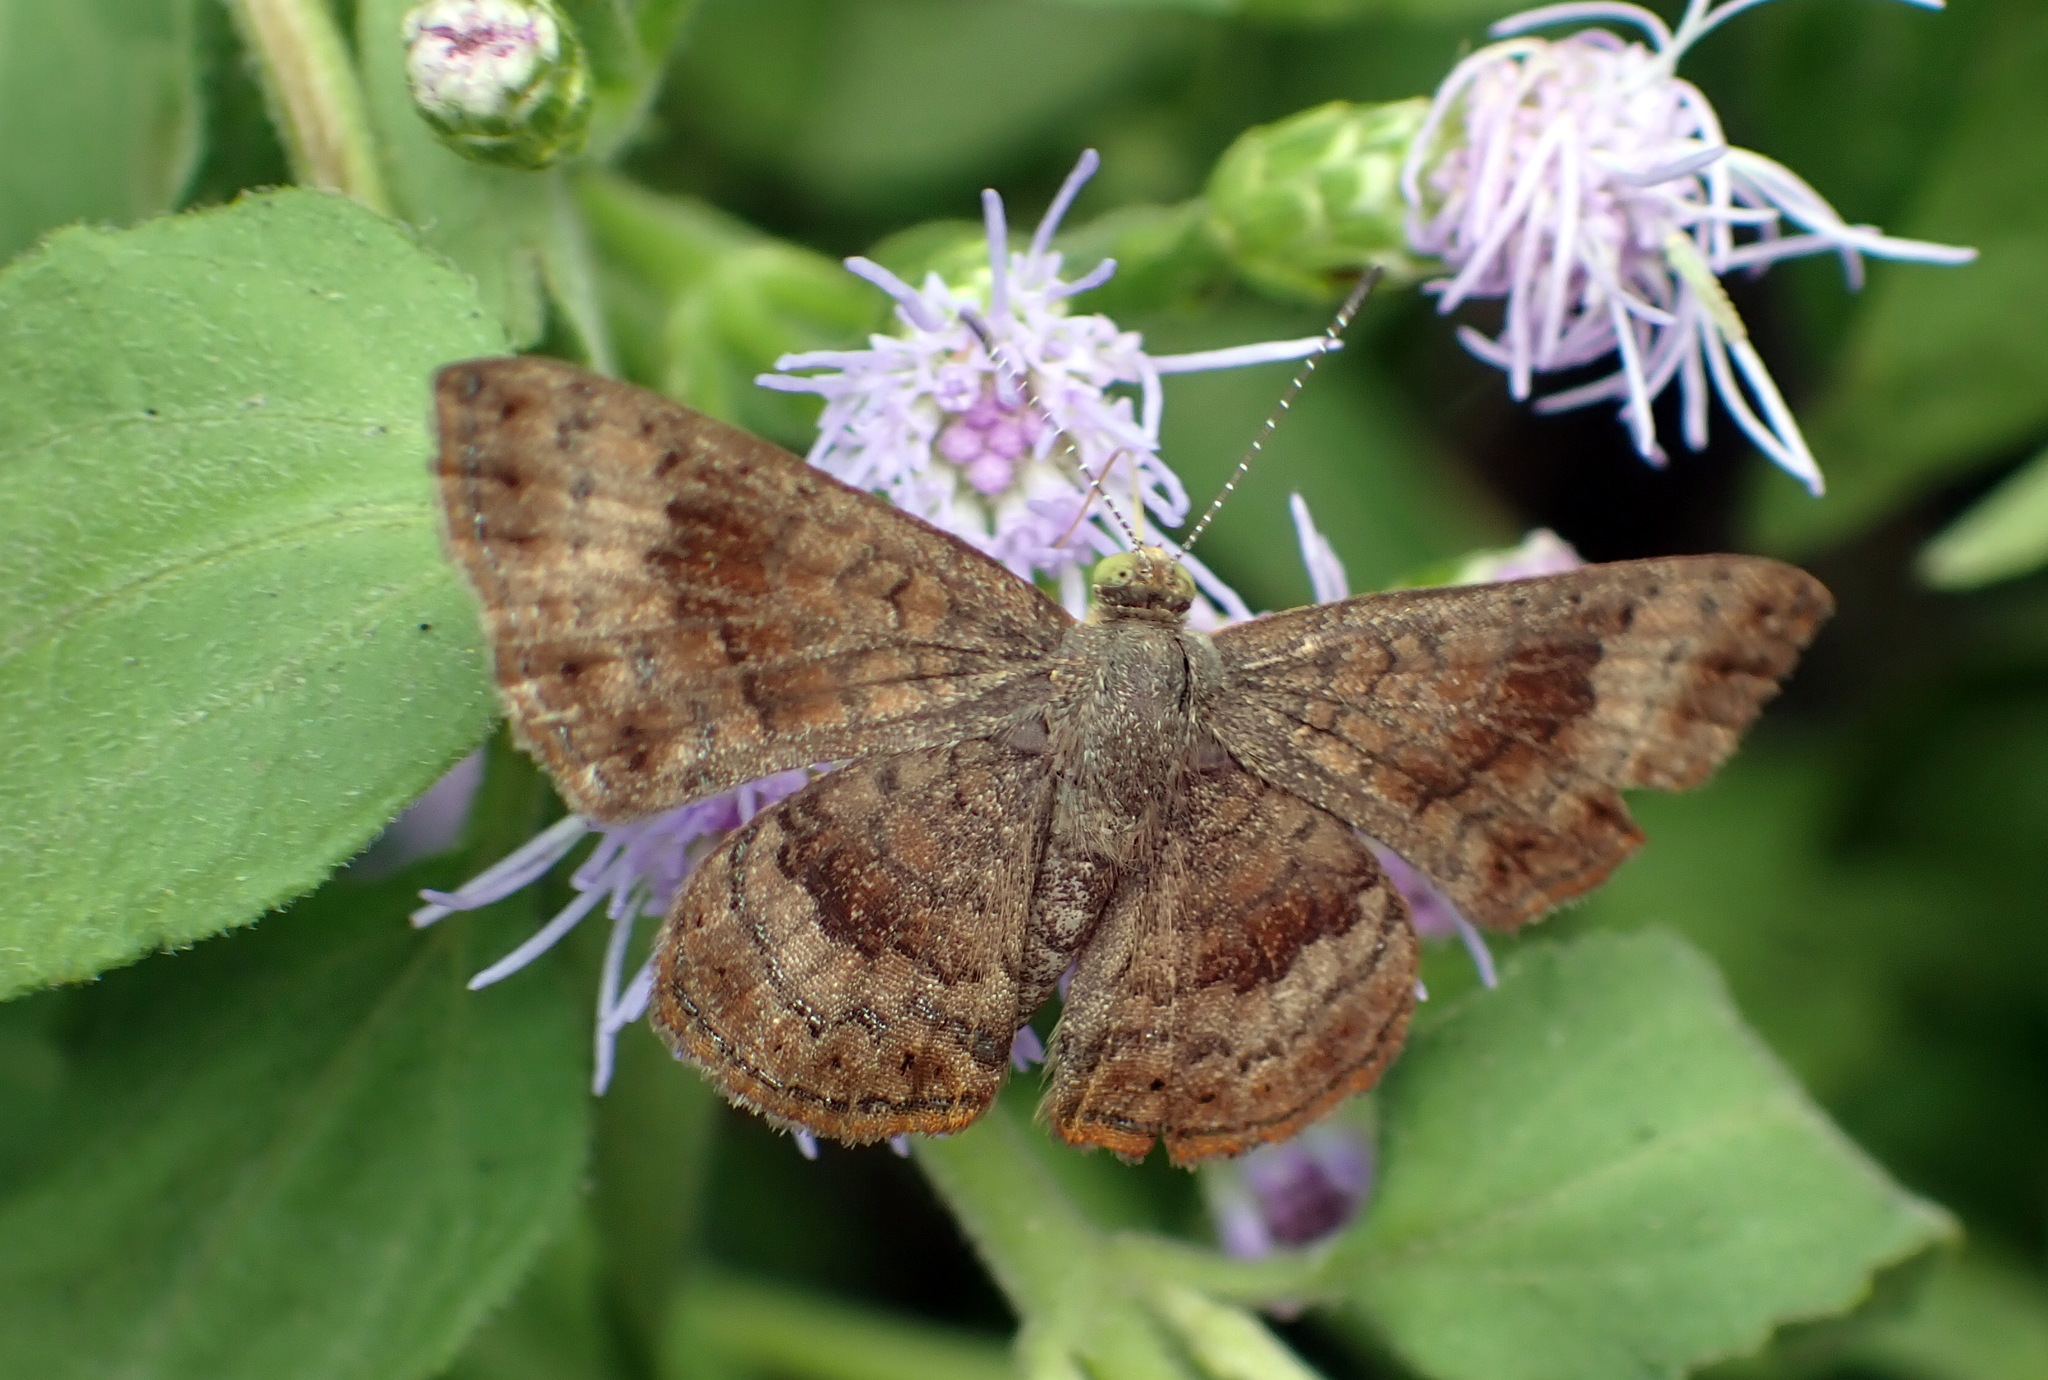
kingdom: Animalia
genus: Calephelis
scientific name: Calephelis nemesis
